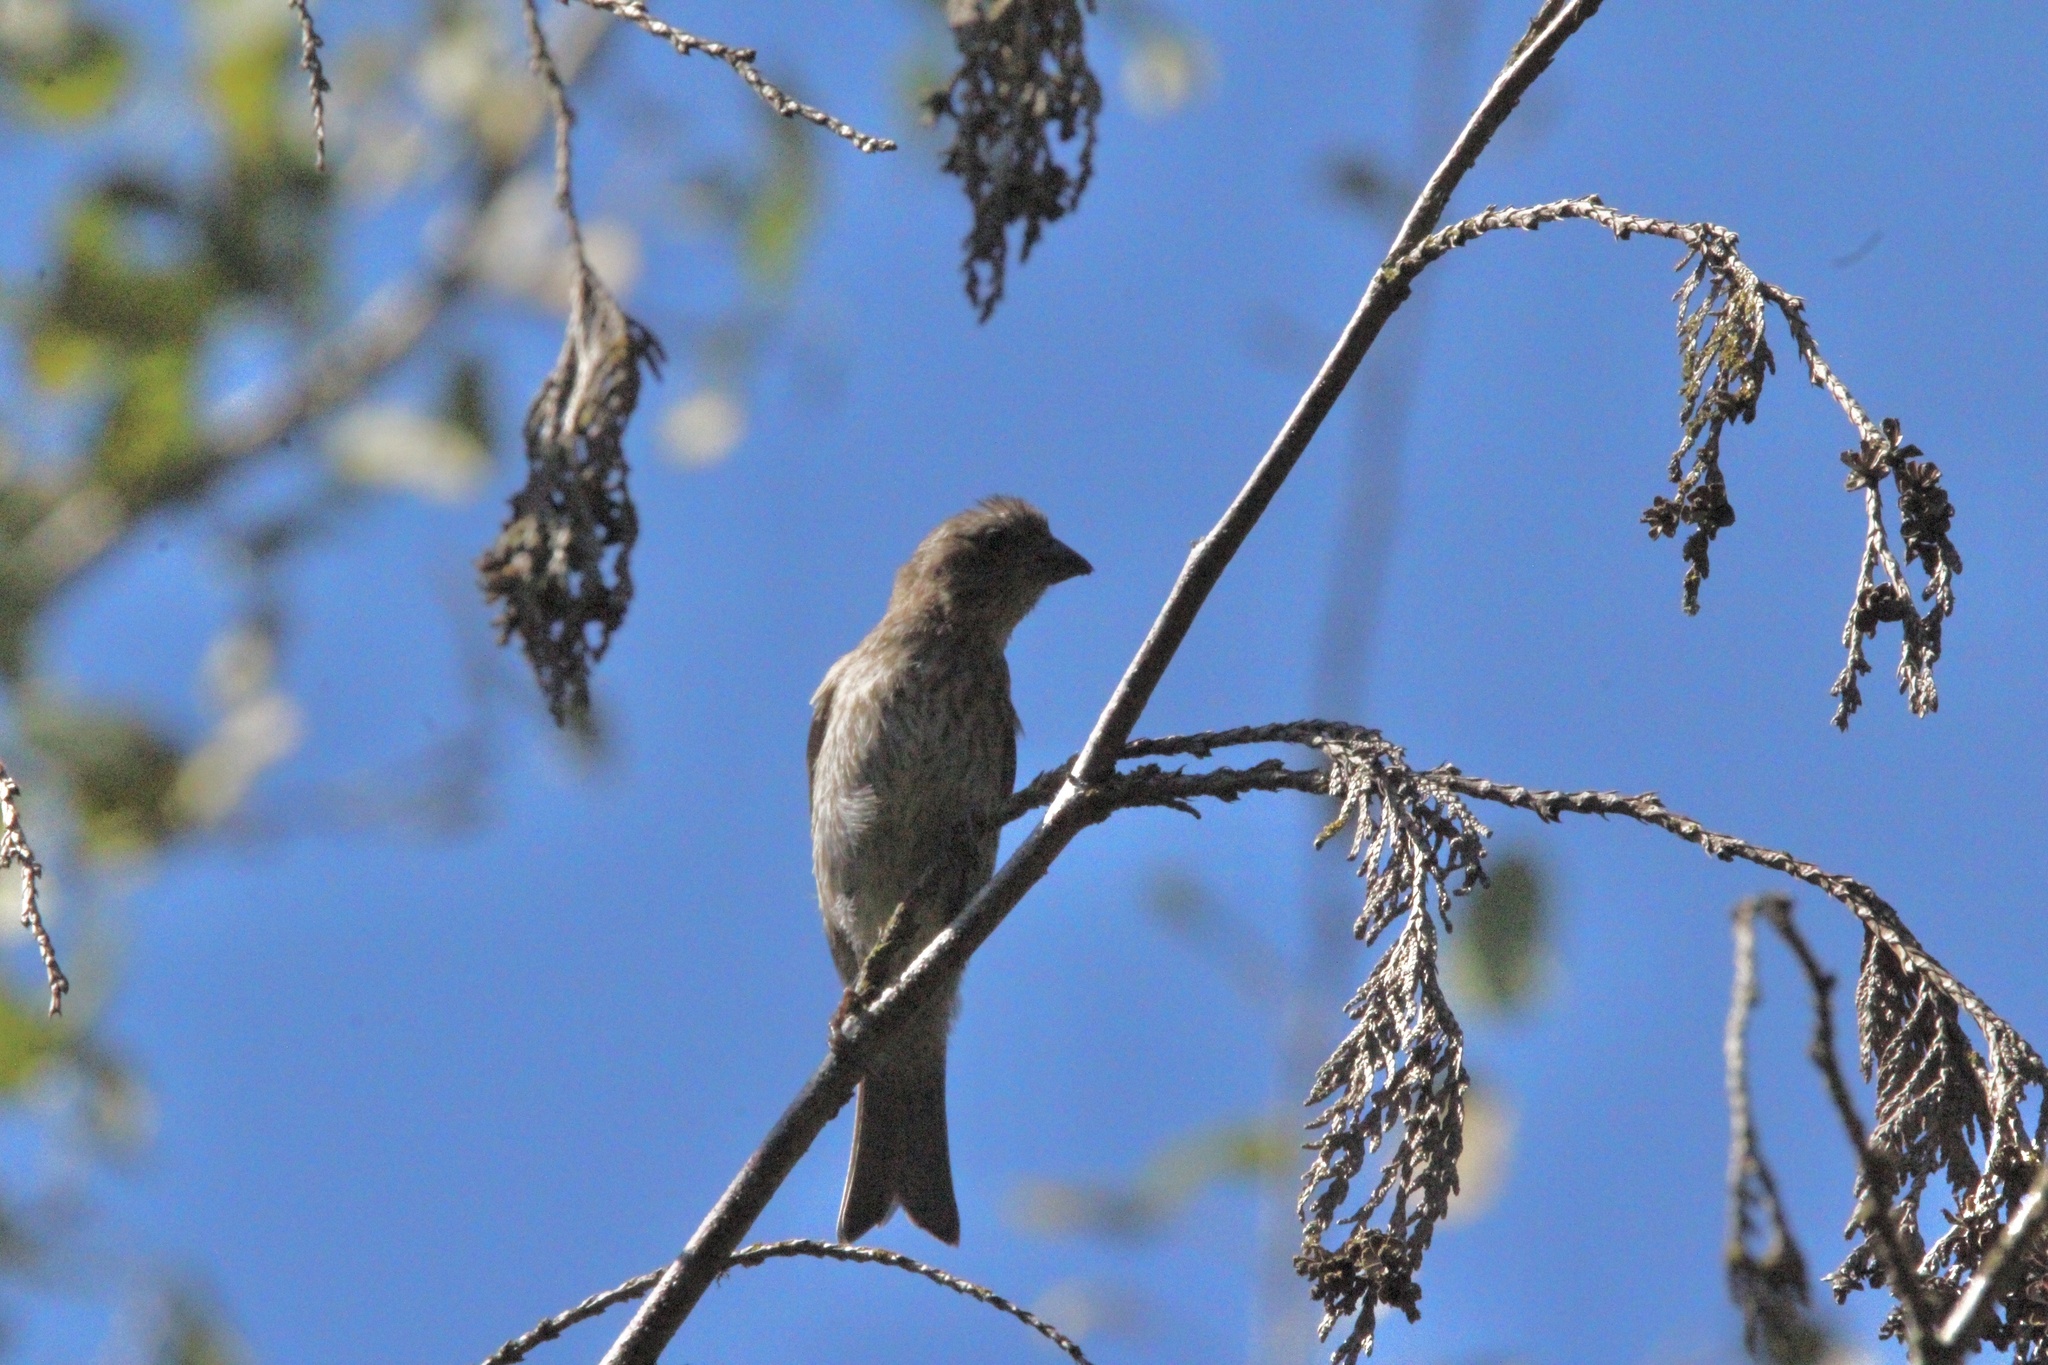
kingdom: Animalia
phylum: Chordata
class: Aves
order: Passeriformes
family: Fringillidae
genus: Haemorhous
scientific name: Haemorhous mexicanus
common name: House finch
